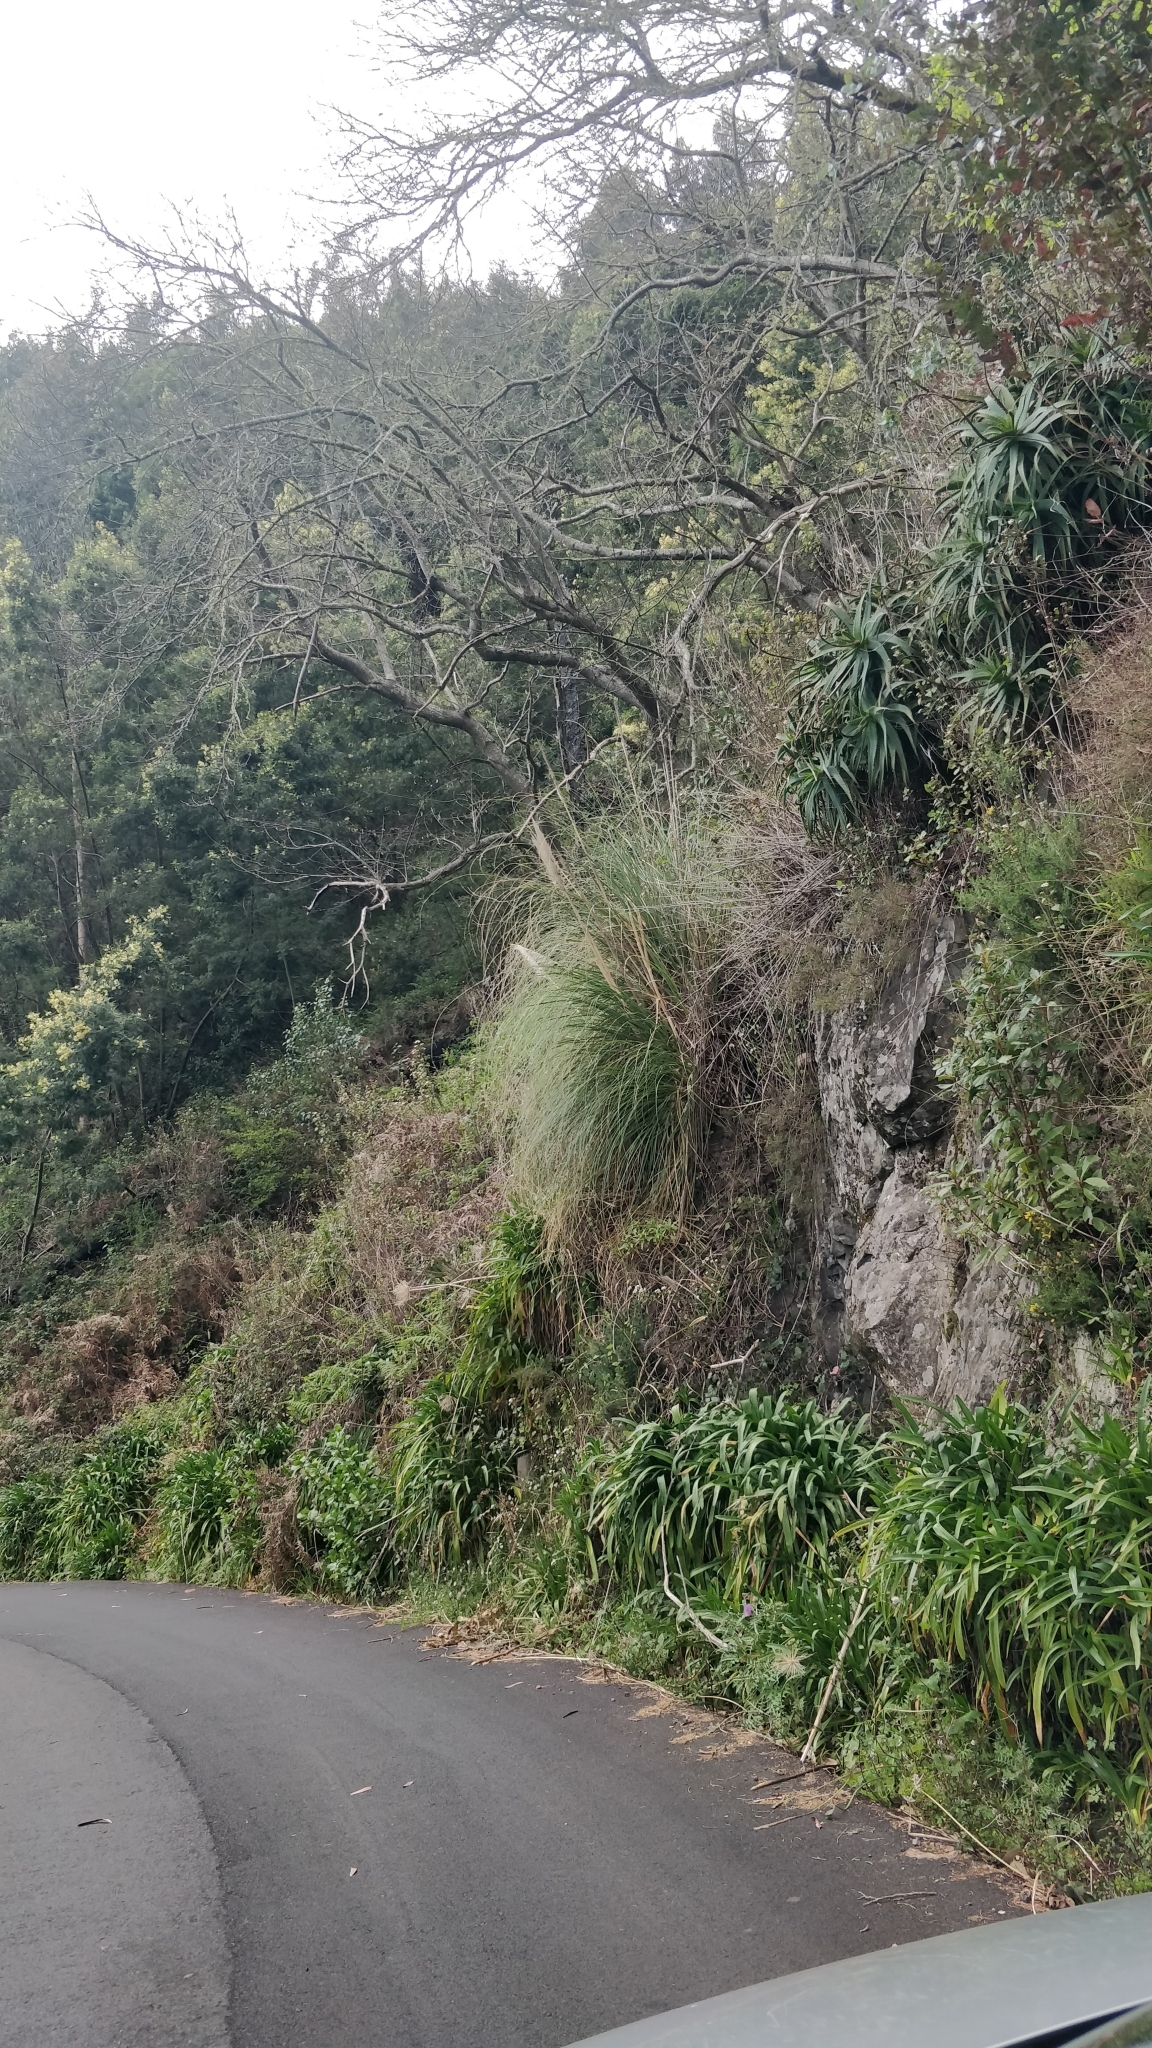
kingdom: Plantae
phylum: Tracheophyta
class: Liliopsida
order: Poales
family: Poaceae
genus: Cortaderia
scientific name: Cortaderia selloana
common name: Uruguayan pampas grass
